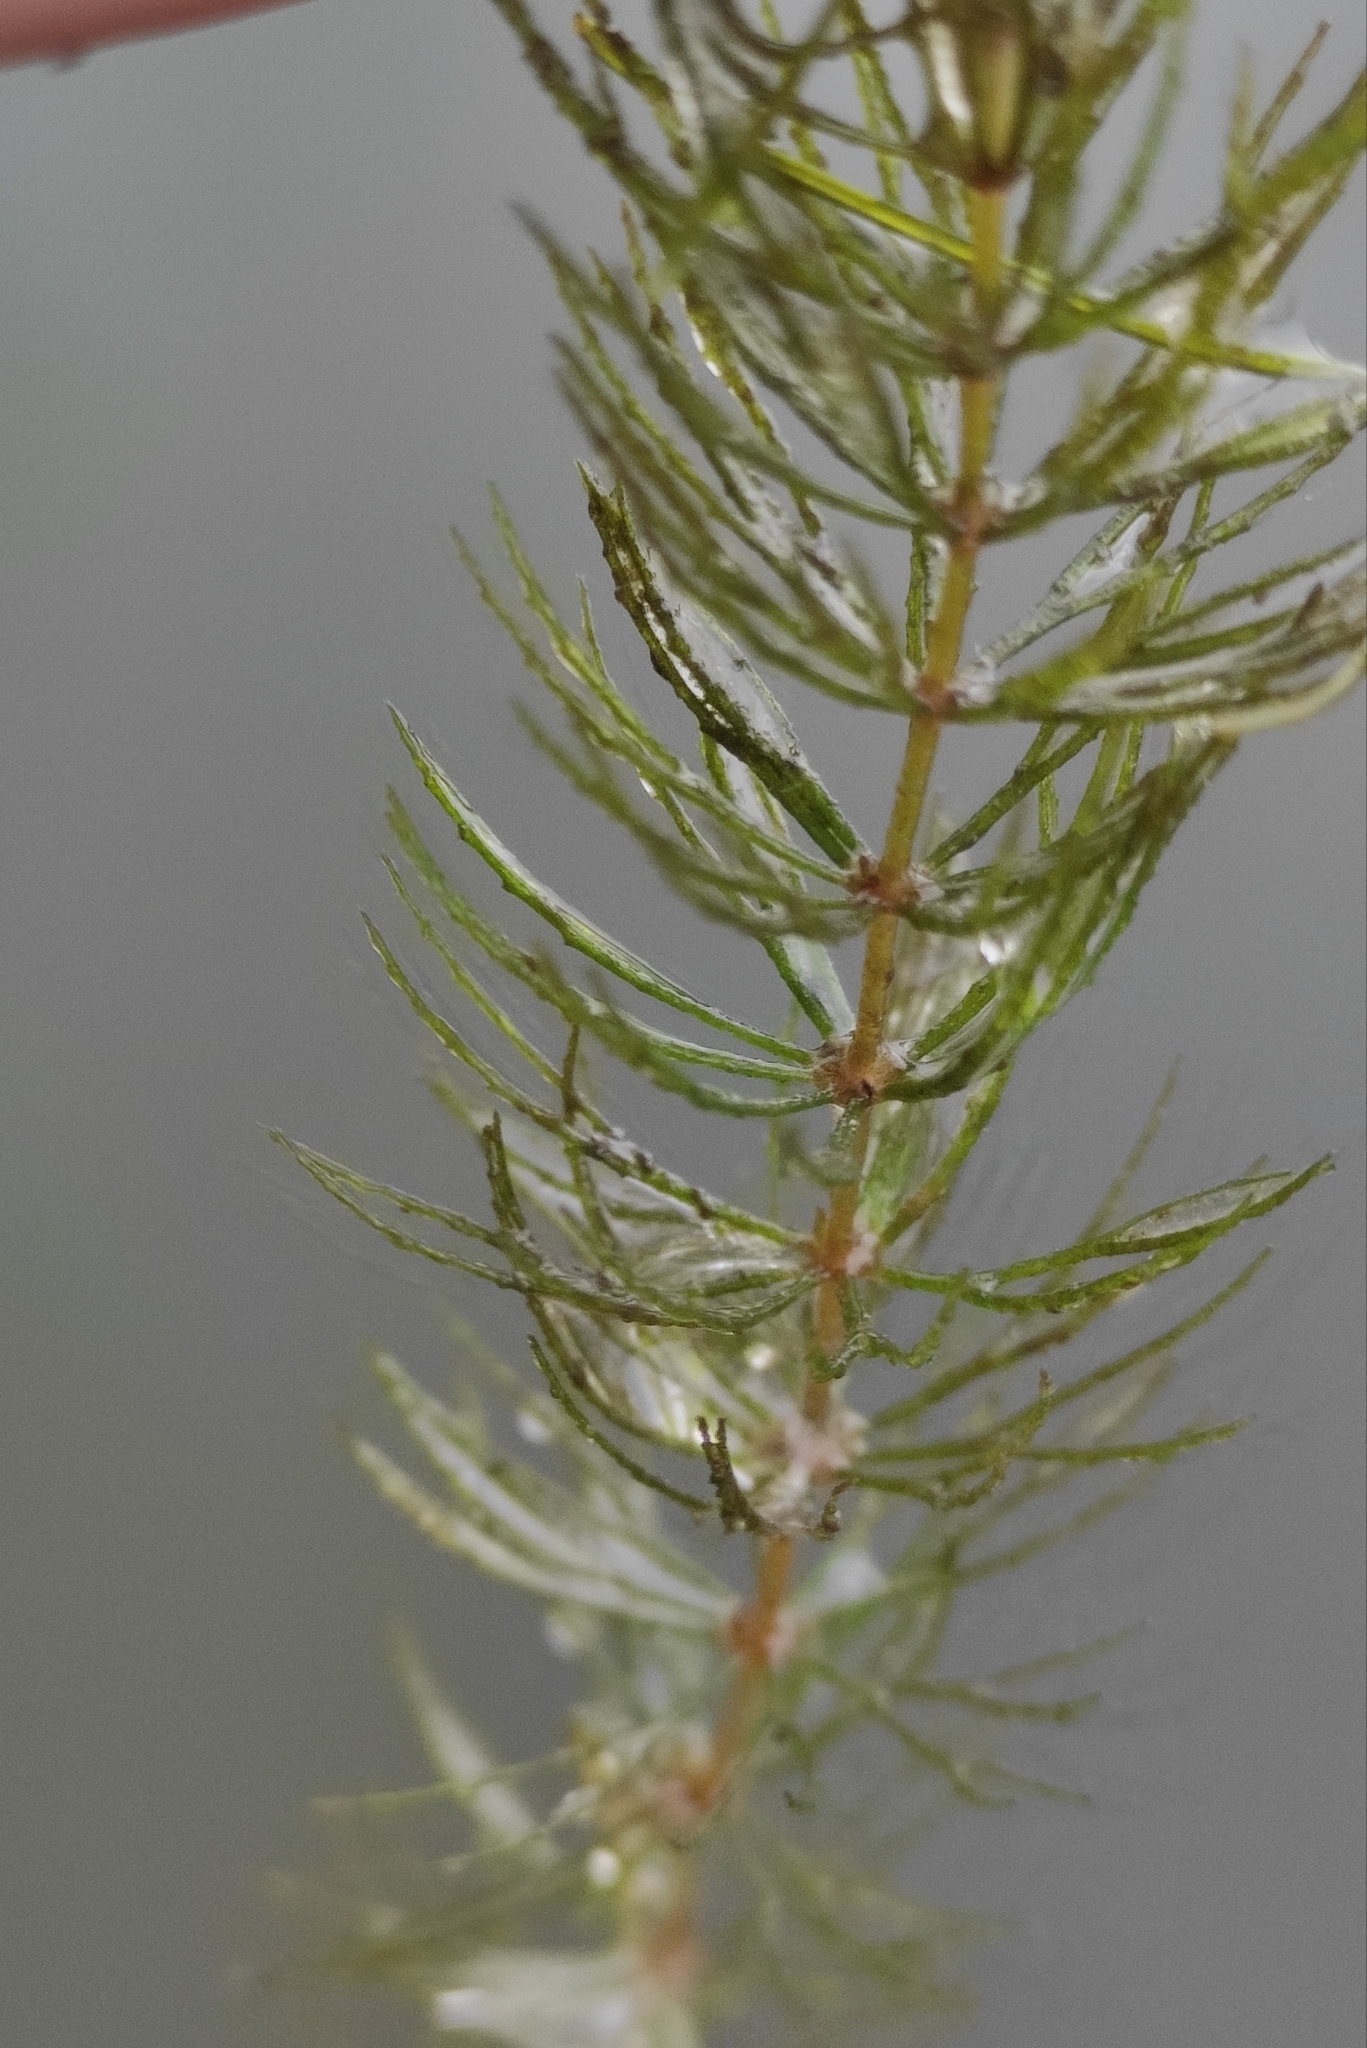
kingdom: Plantae
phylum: Tracheophyta
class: Magnoliopsida
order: Ceratophyllales
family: Ceratophyllaceae
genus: Ceratophyllum
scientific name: Ceratophyllum demersum
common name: Rigid hornwort
